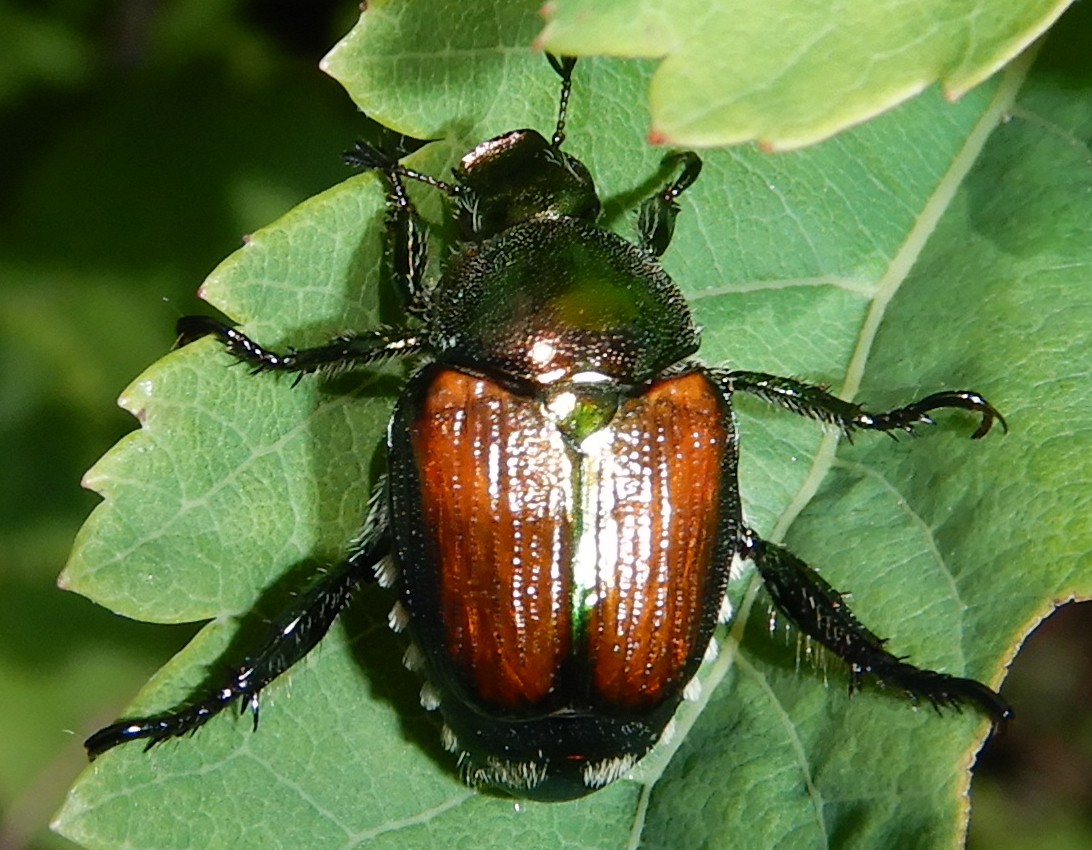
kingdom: Animalia
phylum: Arthropoda
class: Insecta
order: Coleoptera
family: Scarabaeidae
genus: Popillia
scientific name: Popillia japonica
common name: Japanese beetle
